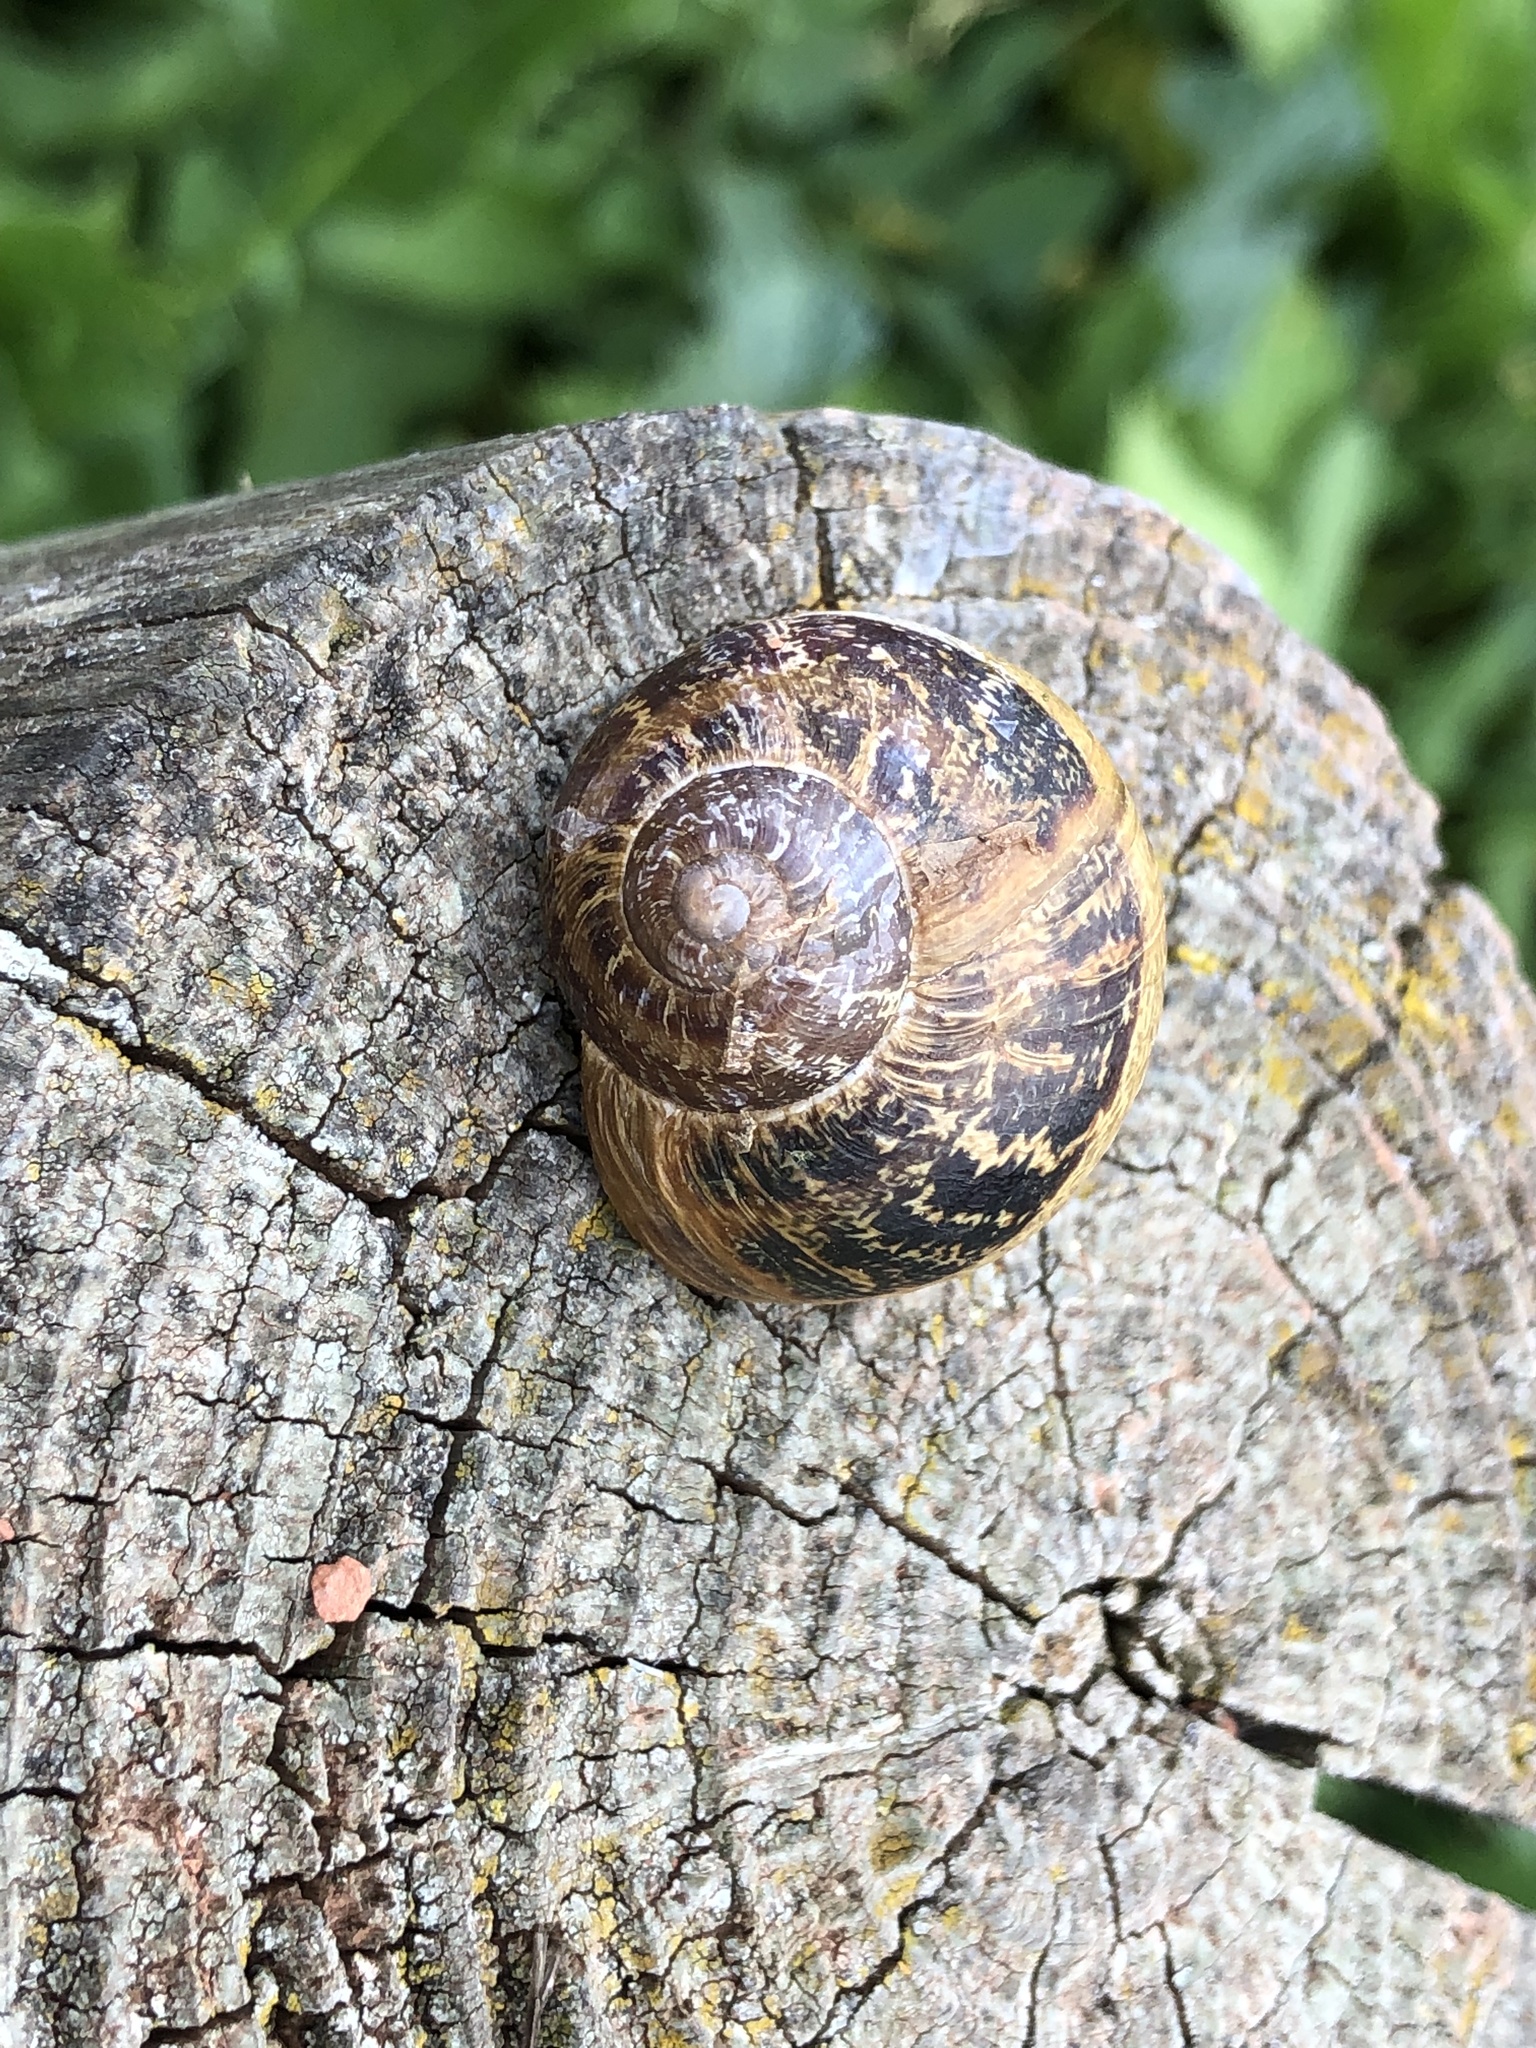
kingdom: Animalia
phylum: Mollusca
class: Gastropoda
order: Stylommatophora
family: Helicidae
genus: Cornu
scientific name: Cornu aspersum
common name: Brown garden snail
